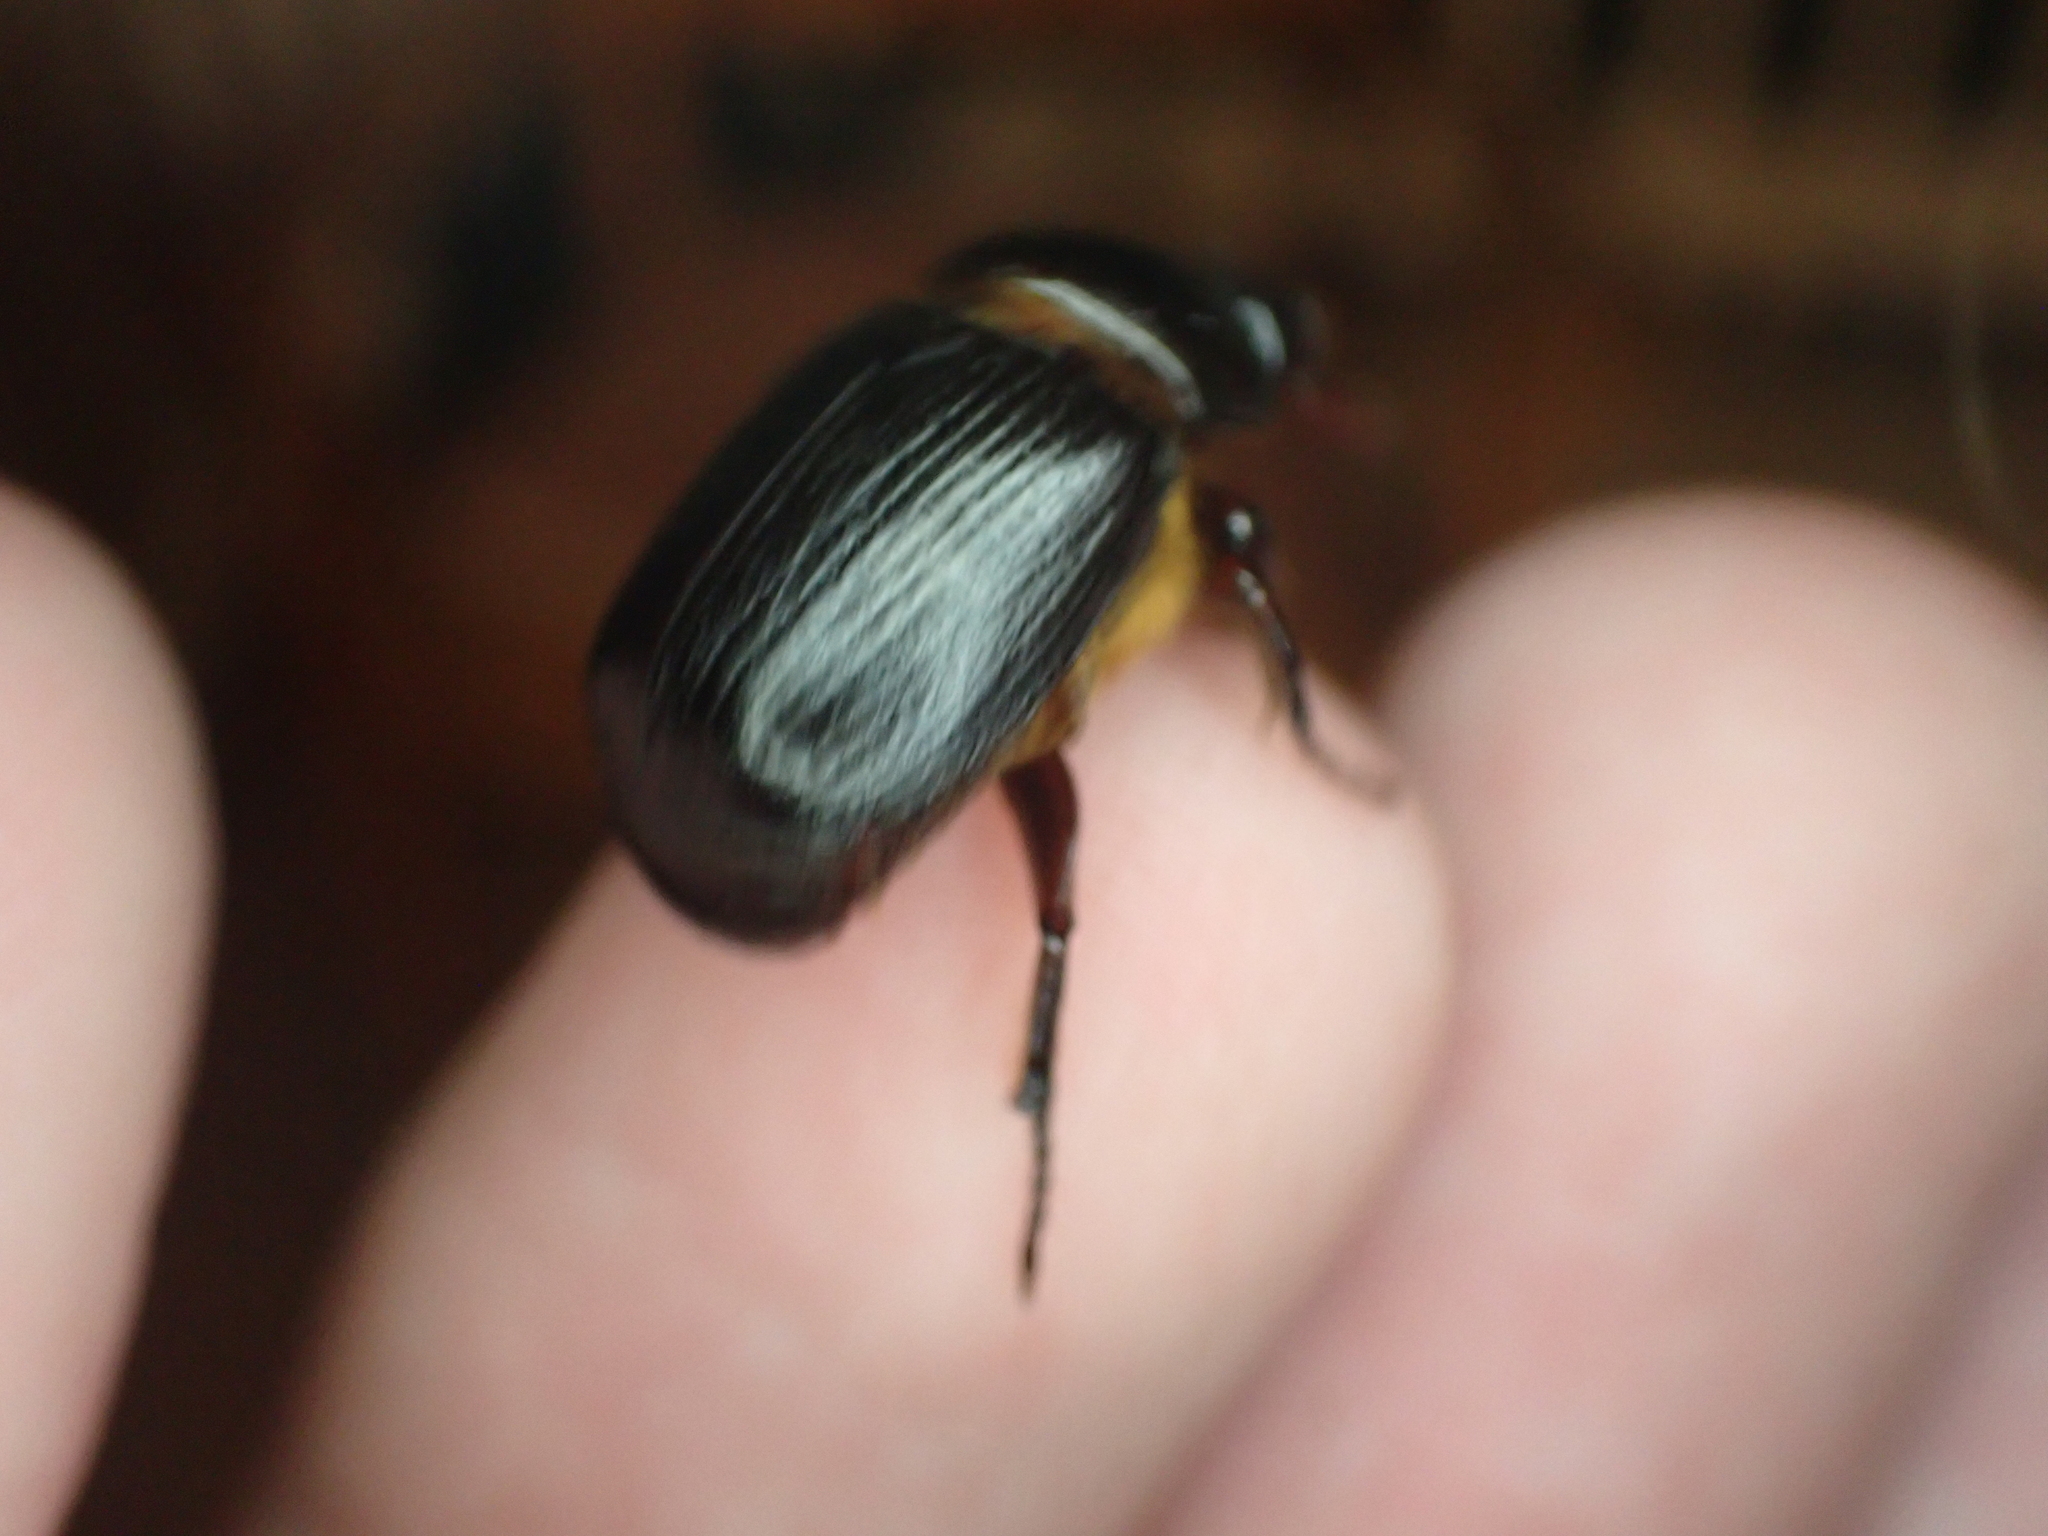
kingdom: Animalia
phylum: Arthropoda
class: Insecta
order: Coleoptera
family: Scarabaeidae
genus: Parastasia
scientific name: Parastasia brevipes
